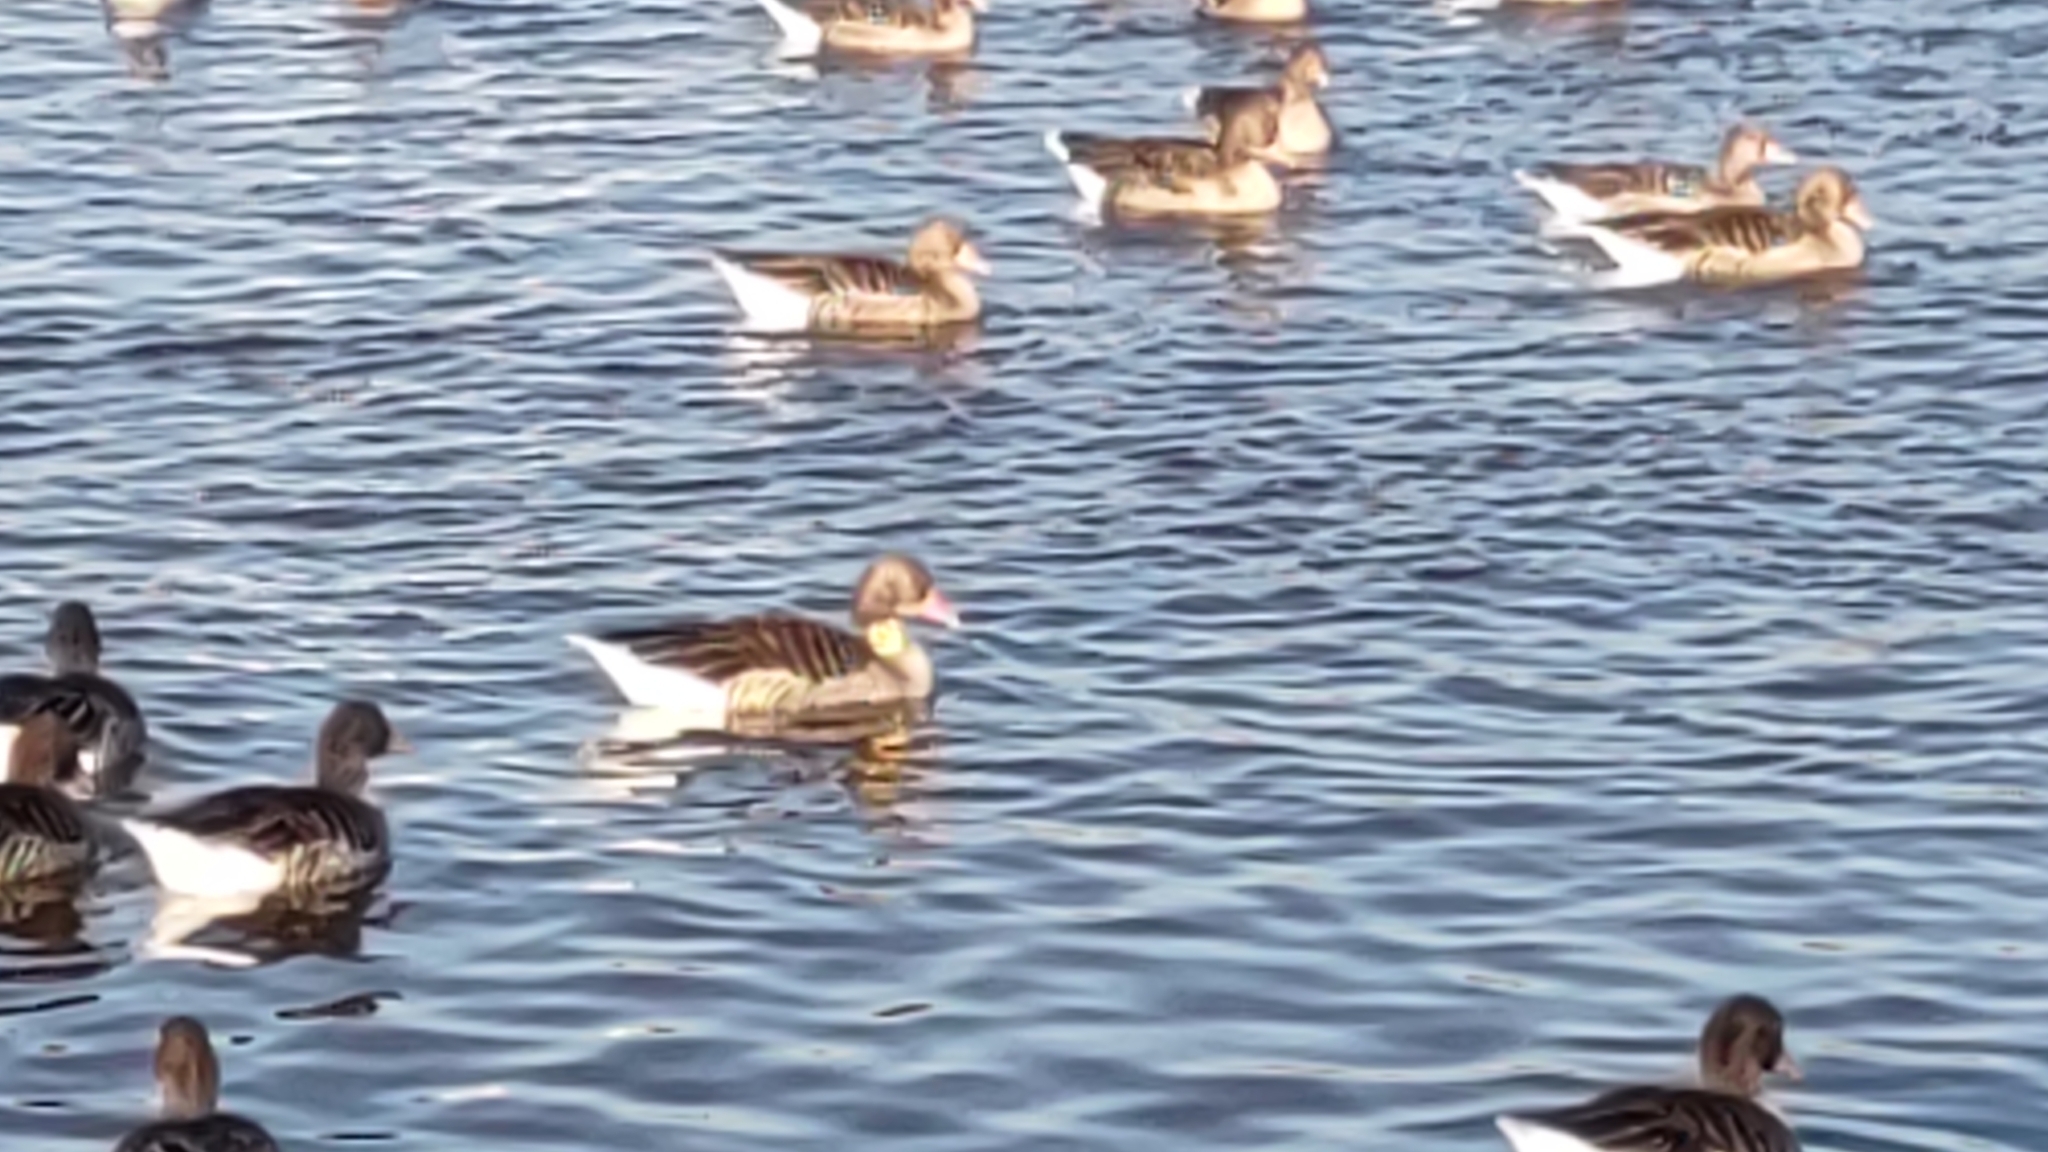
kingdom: Animalia
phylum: Chordata
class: Aves
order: Anseriformes
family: Anatidae
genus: Anser
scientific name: Anser anser
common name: Greylag goose
